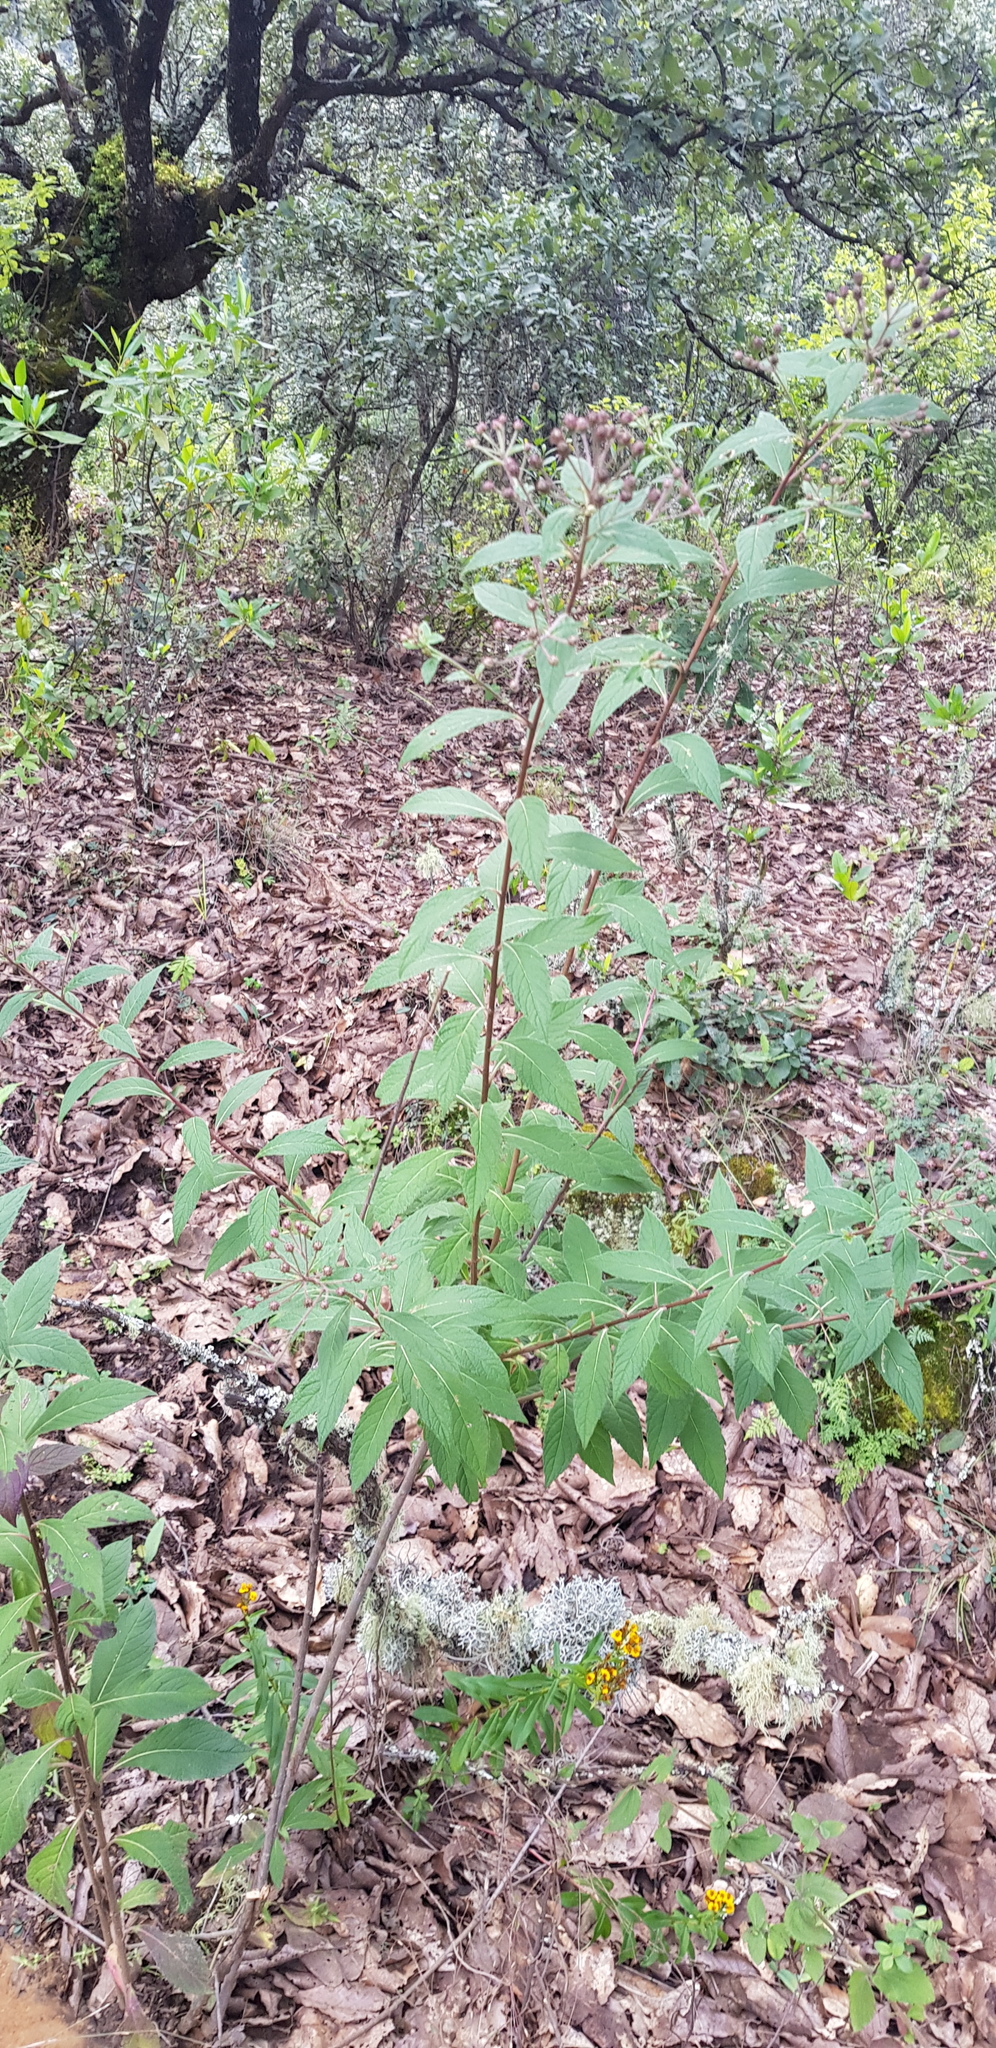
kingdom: Plantae
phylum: Tracheophyta
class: Magnoliopsida
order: Asterales
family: Asteraceae
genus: Vernonia
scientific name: Vernonia karvinskiana
